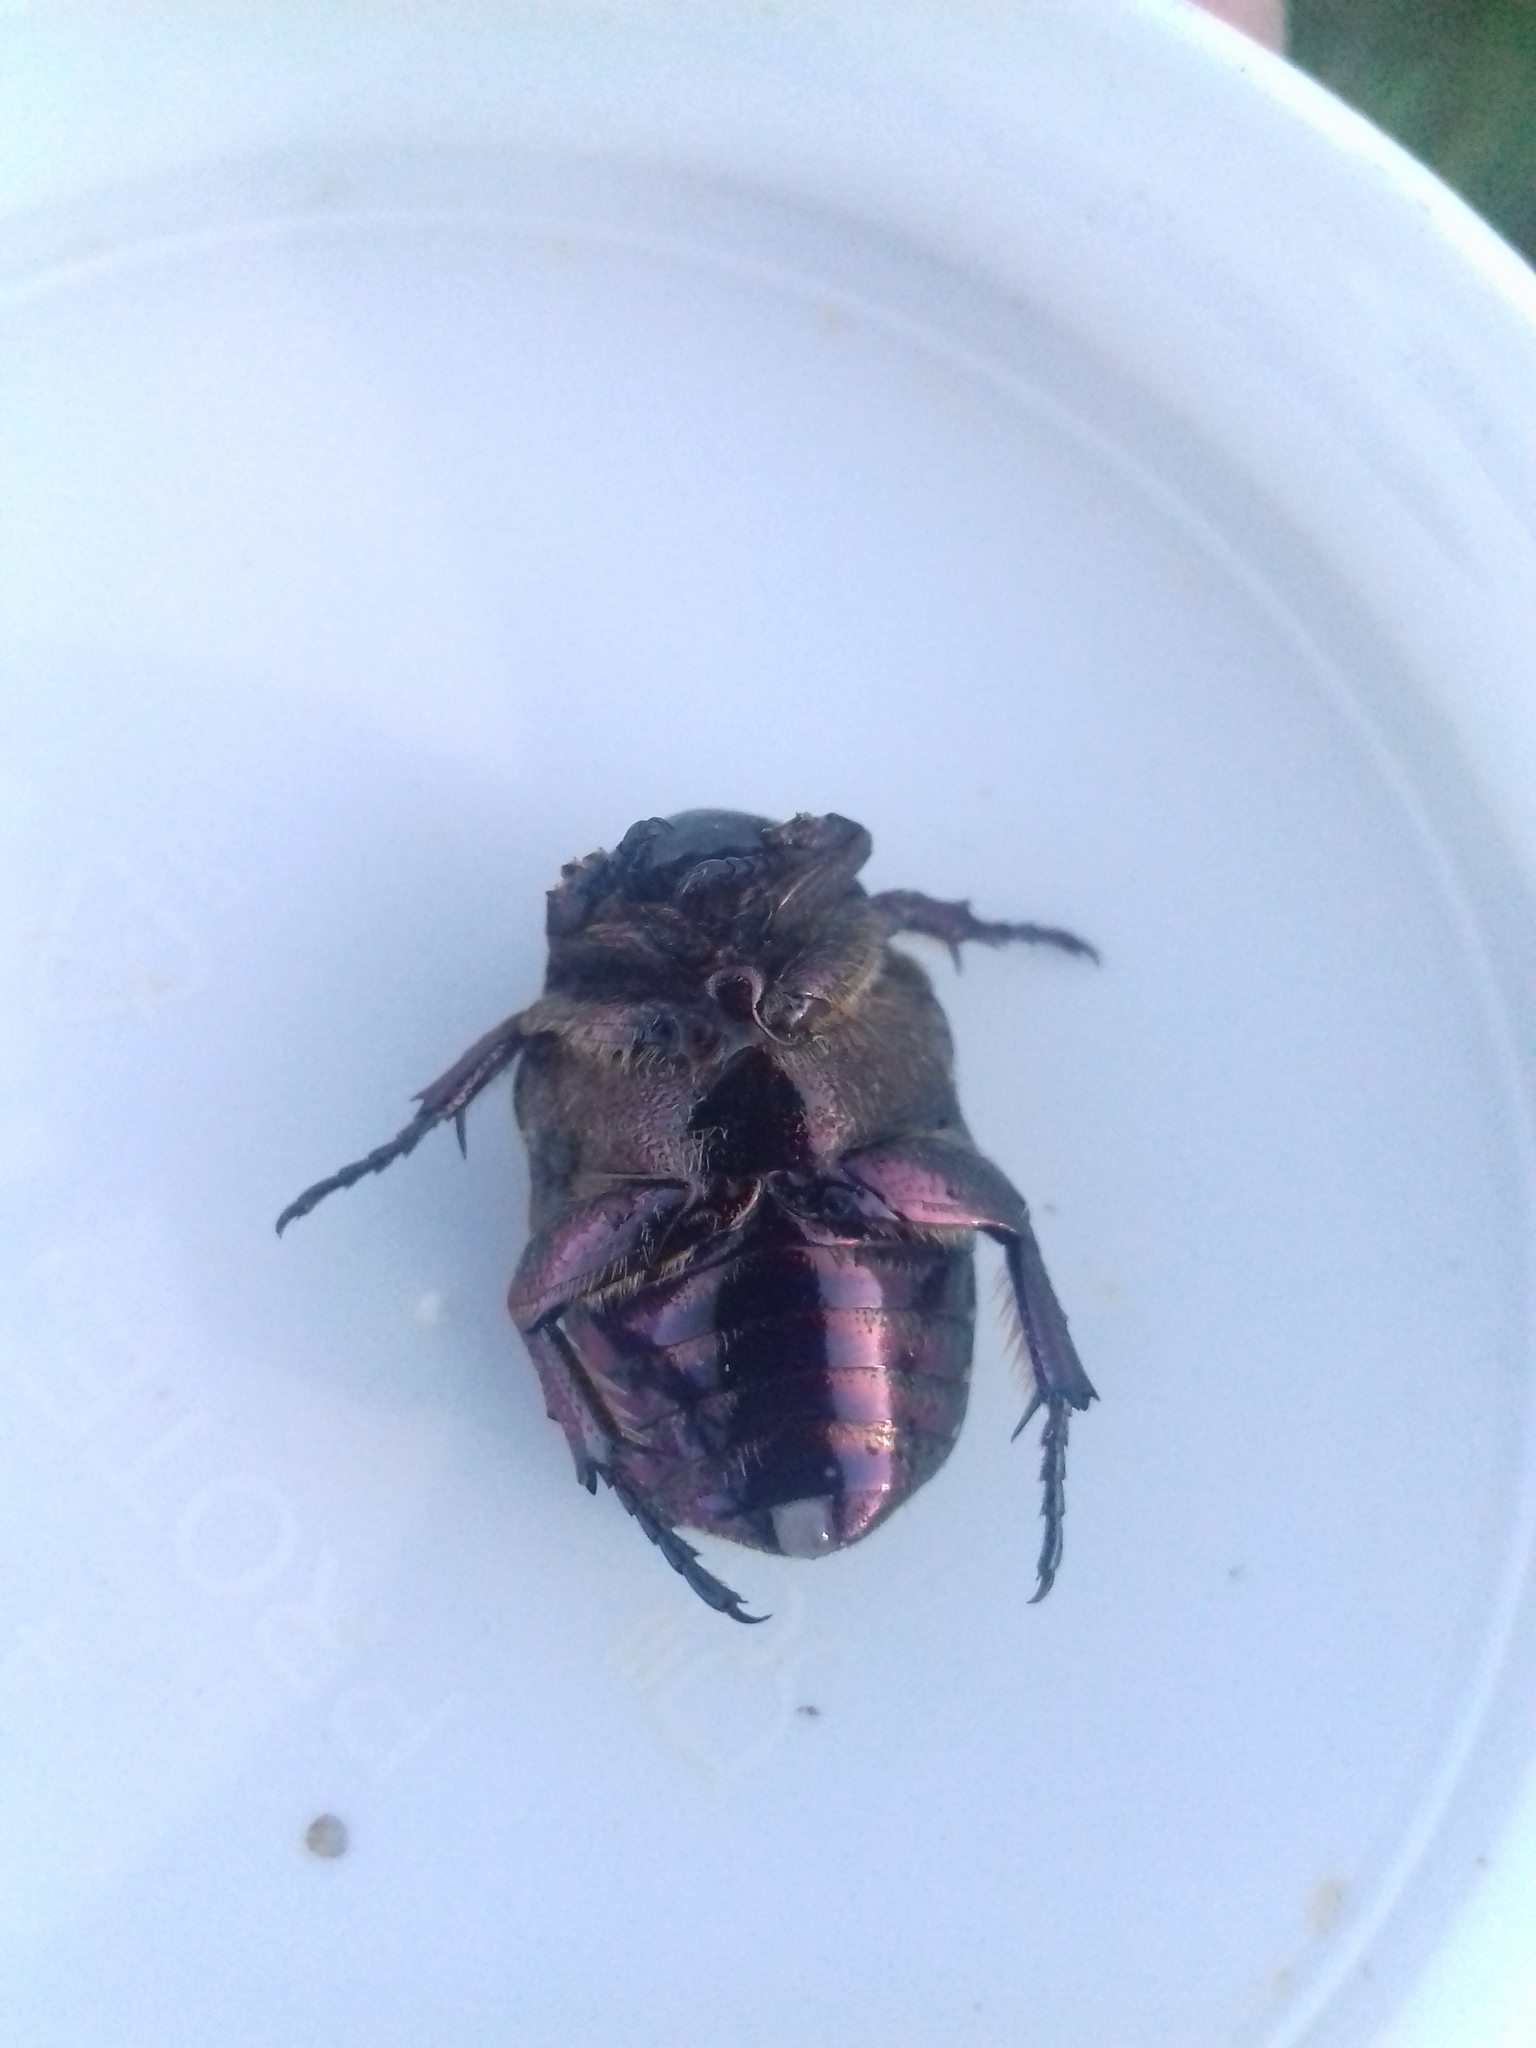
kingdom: Animalia
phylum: Arthropoda
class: Insecta
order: Coleoptera
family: Scarabaeidae
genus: Protaetia
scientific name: Protaetia marmorata
